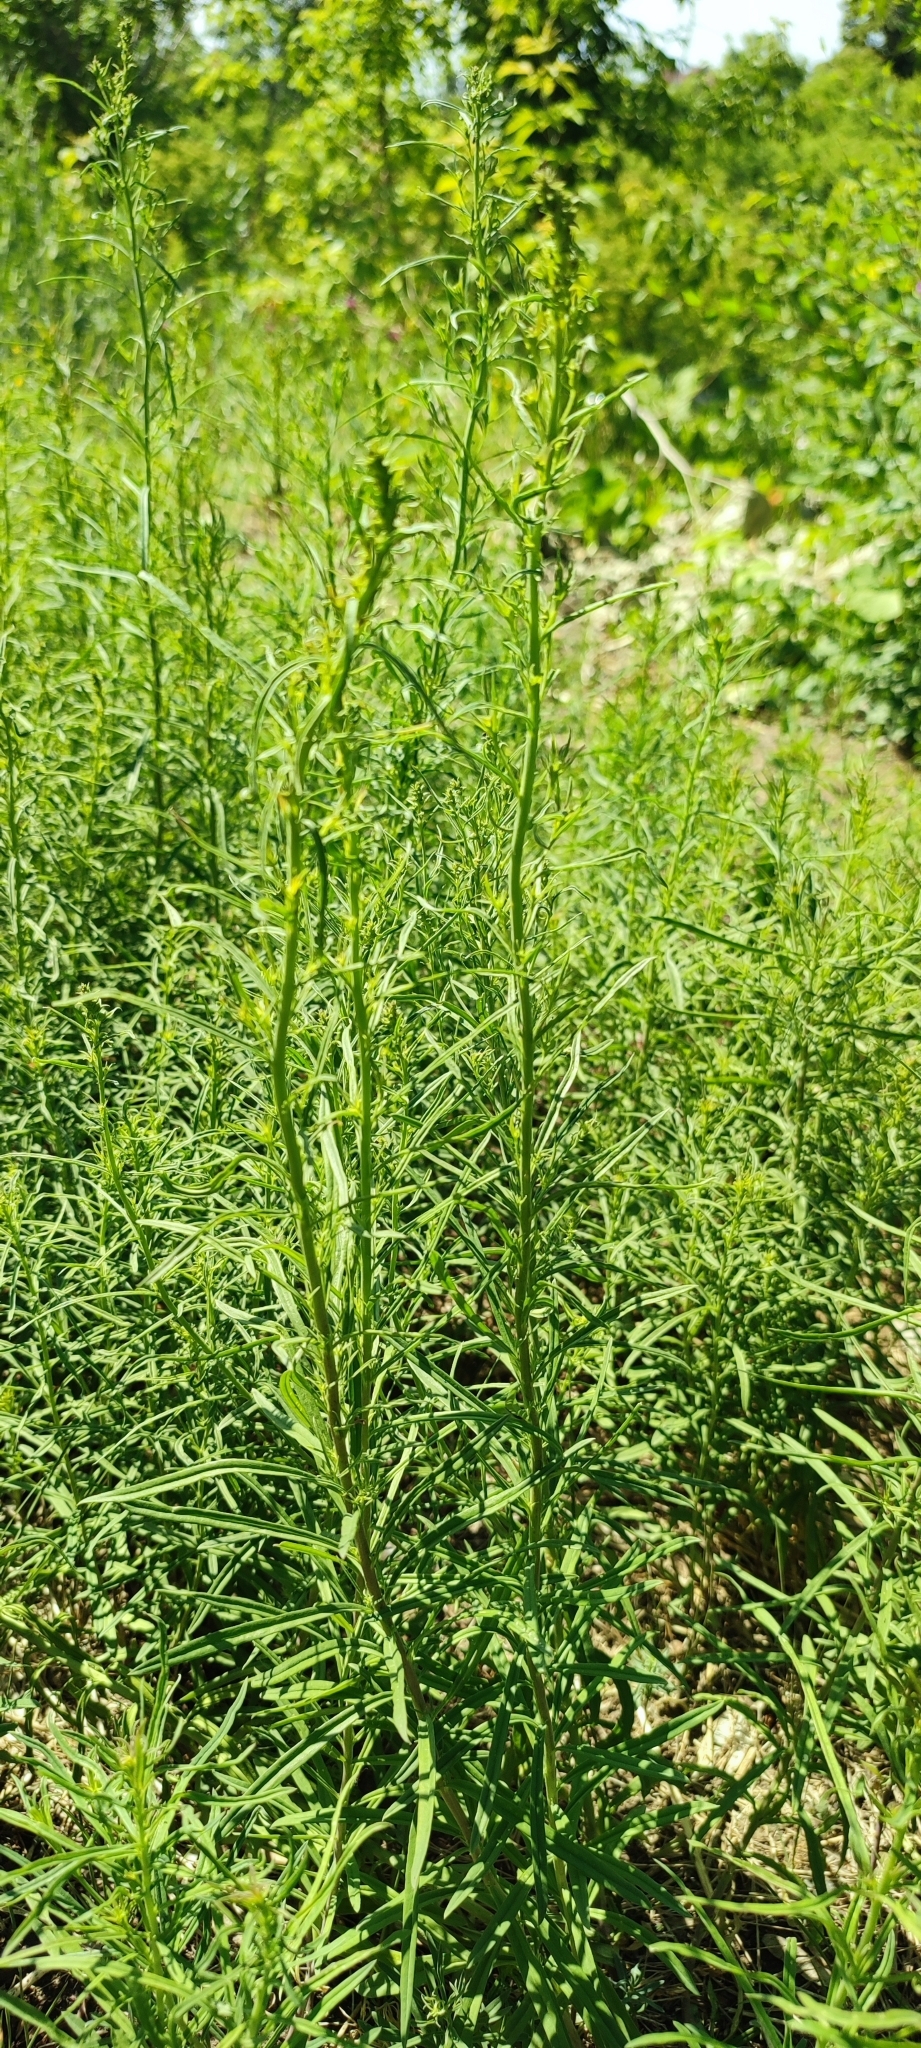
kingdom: Plantae
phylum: Tracheophyta
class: Magnoliopsida
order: Lamiales
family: Plantaginaceae
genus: Linaria
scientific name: Linaria vulgaris
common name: Butter and eggs
